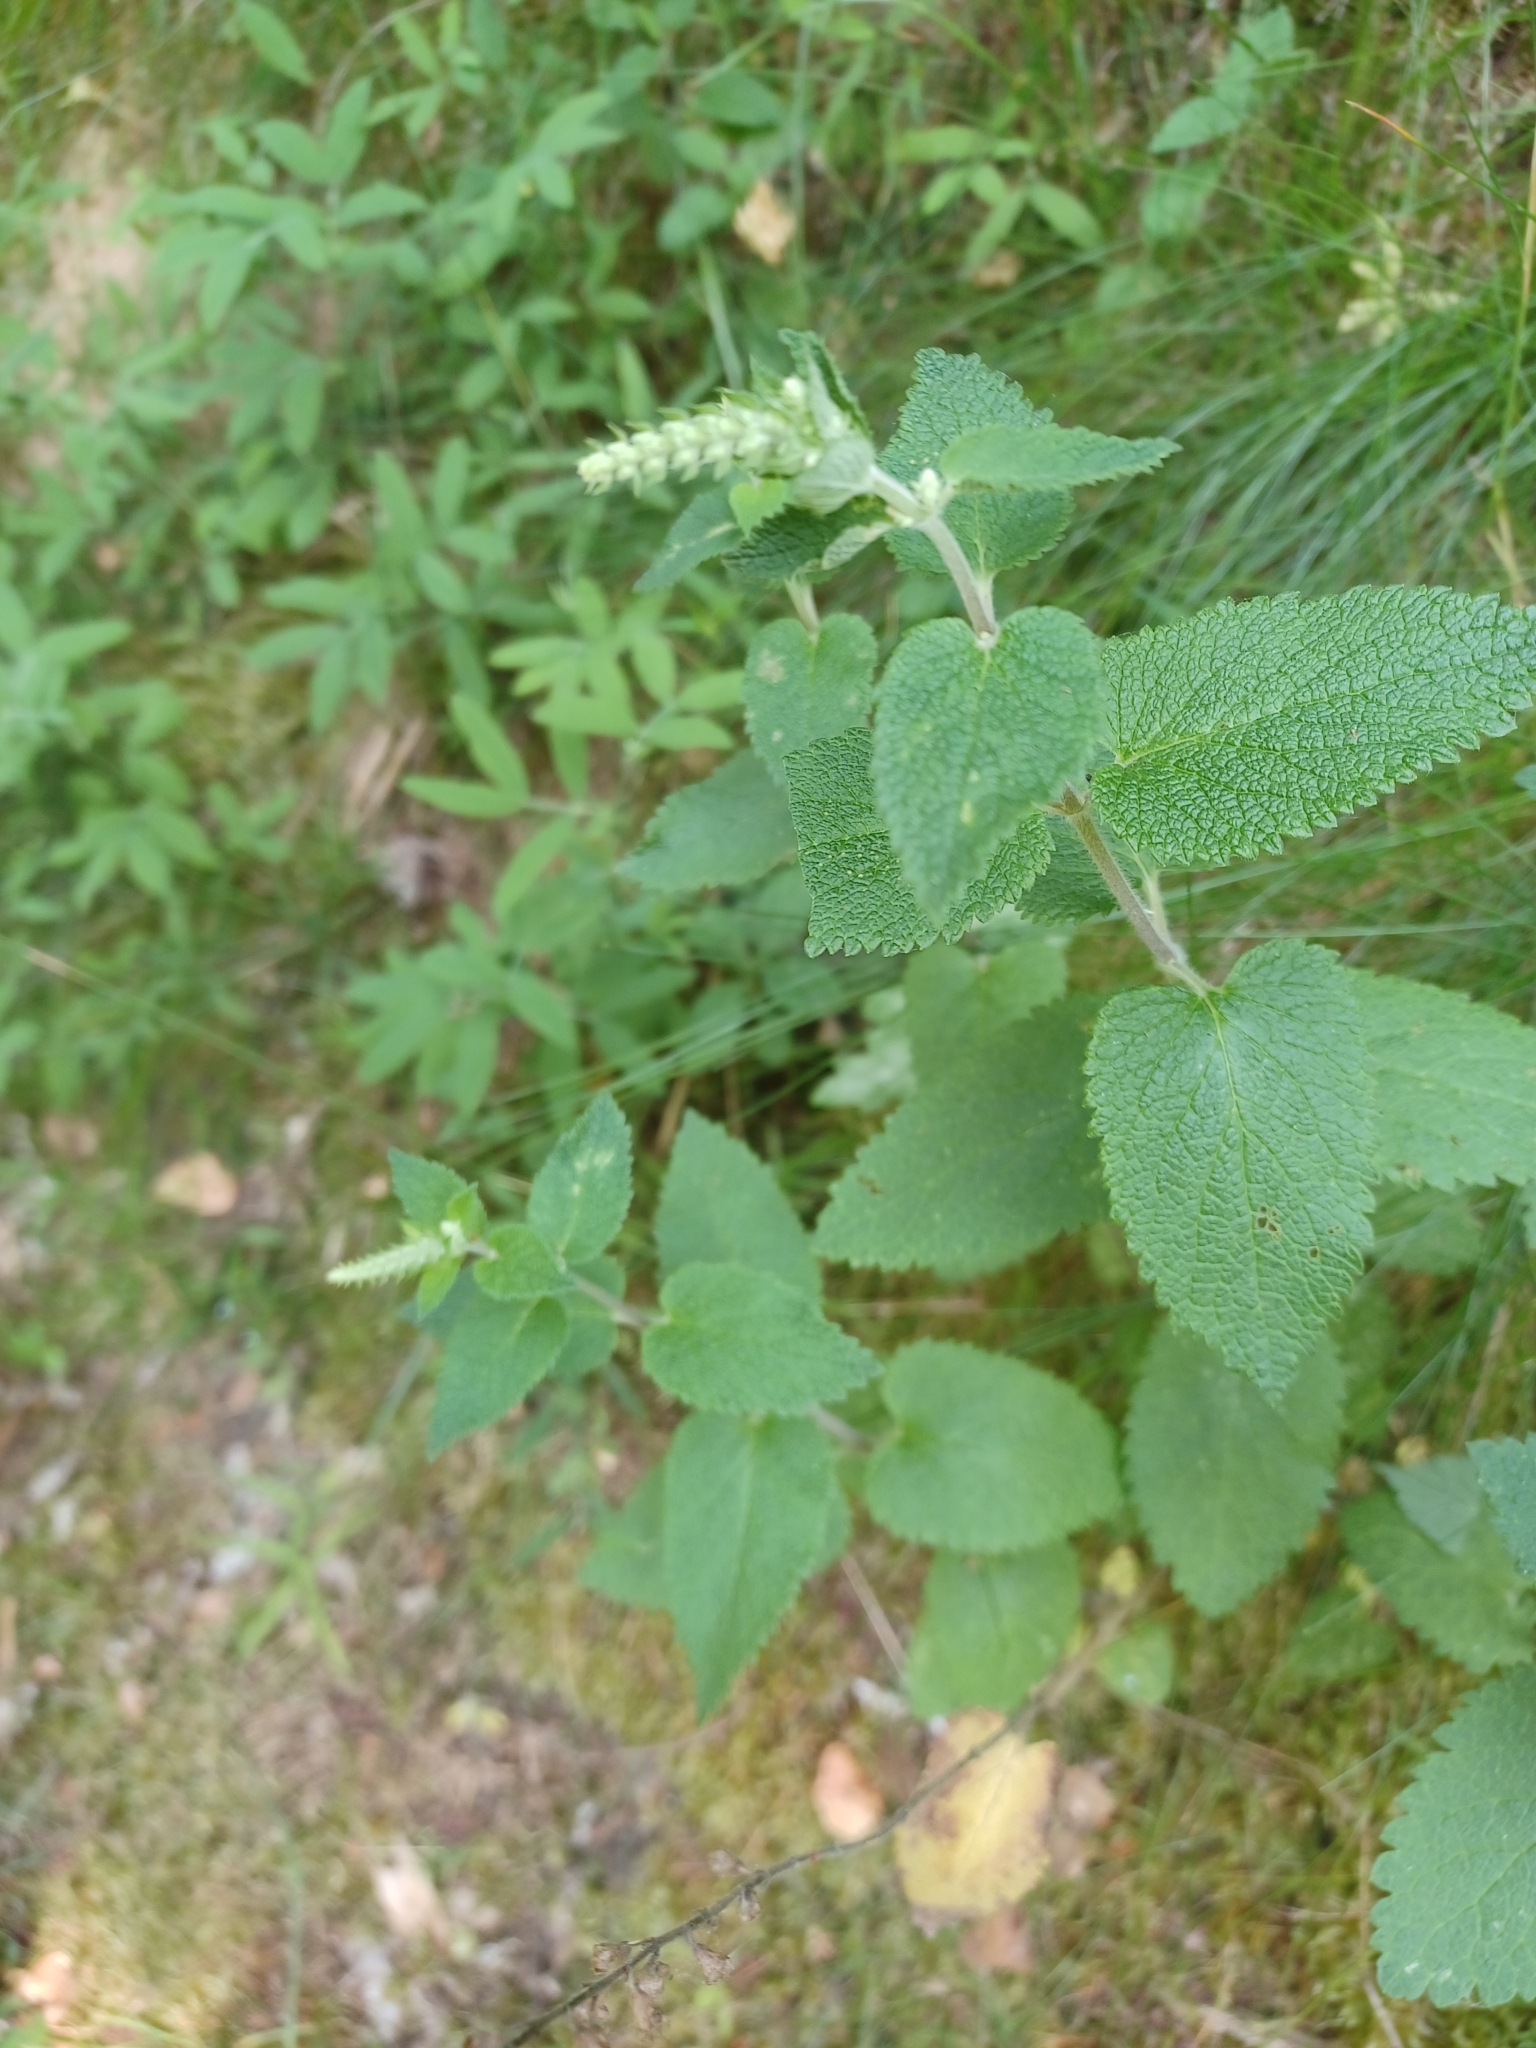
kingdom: Plantae
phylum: Tracheophyta
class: Magnoliopsida
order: Lamiales
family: Lamiaceae
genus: Teucrium
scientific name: Teucrium scorodonia
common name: Woodland germander
